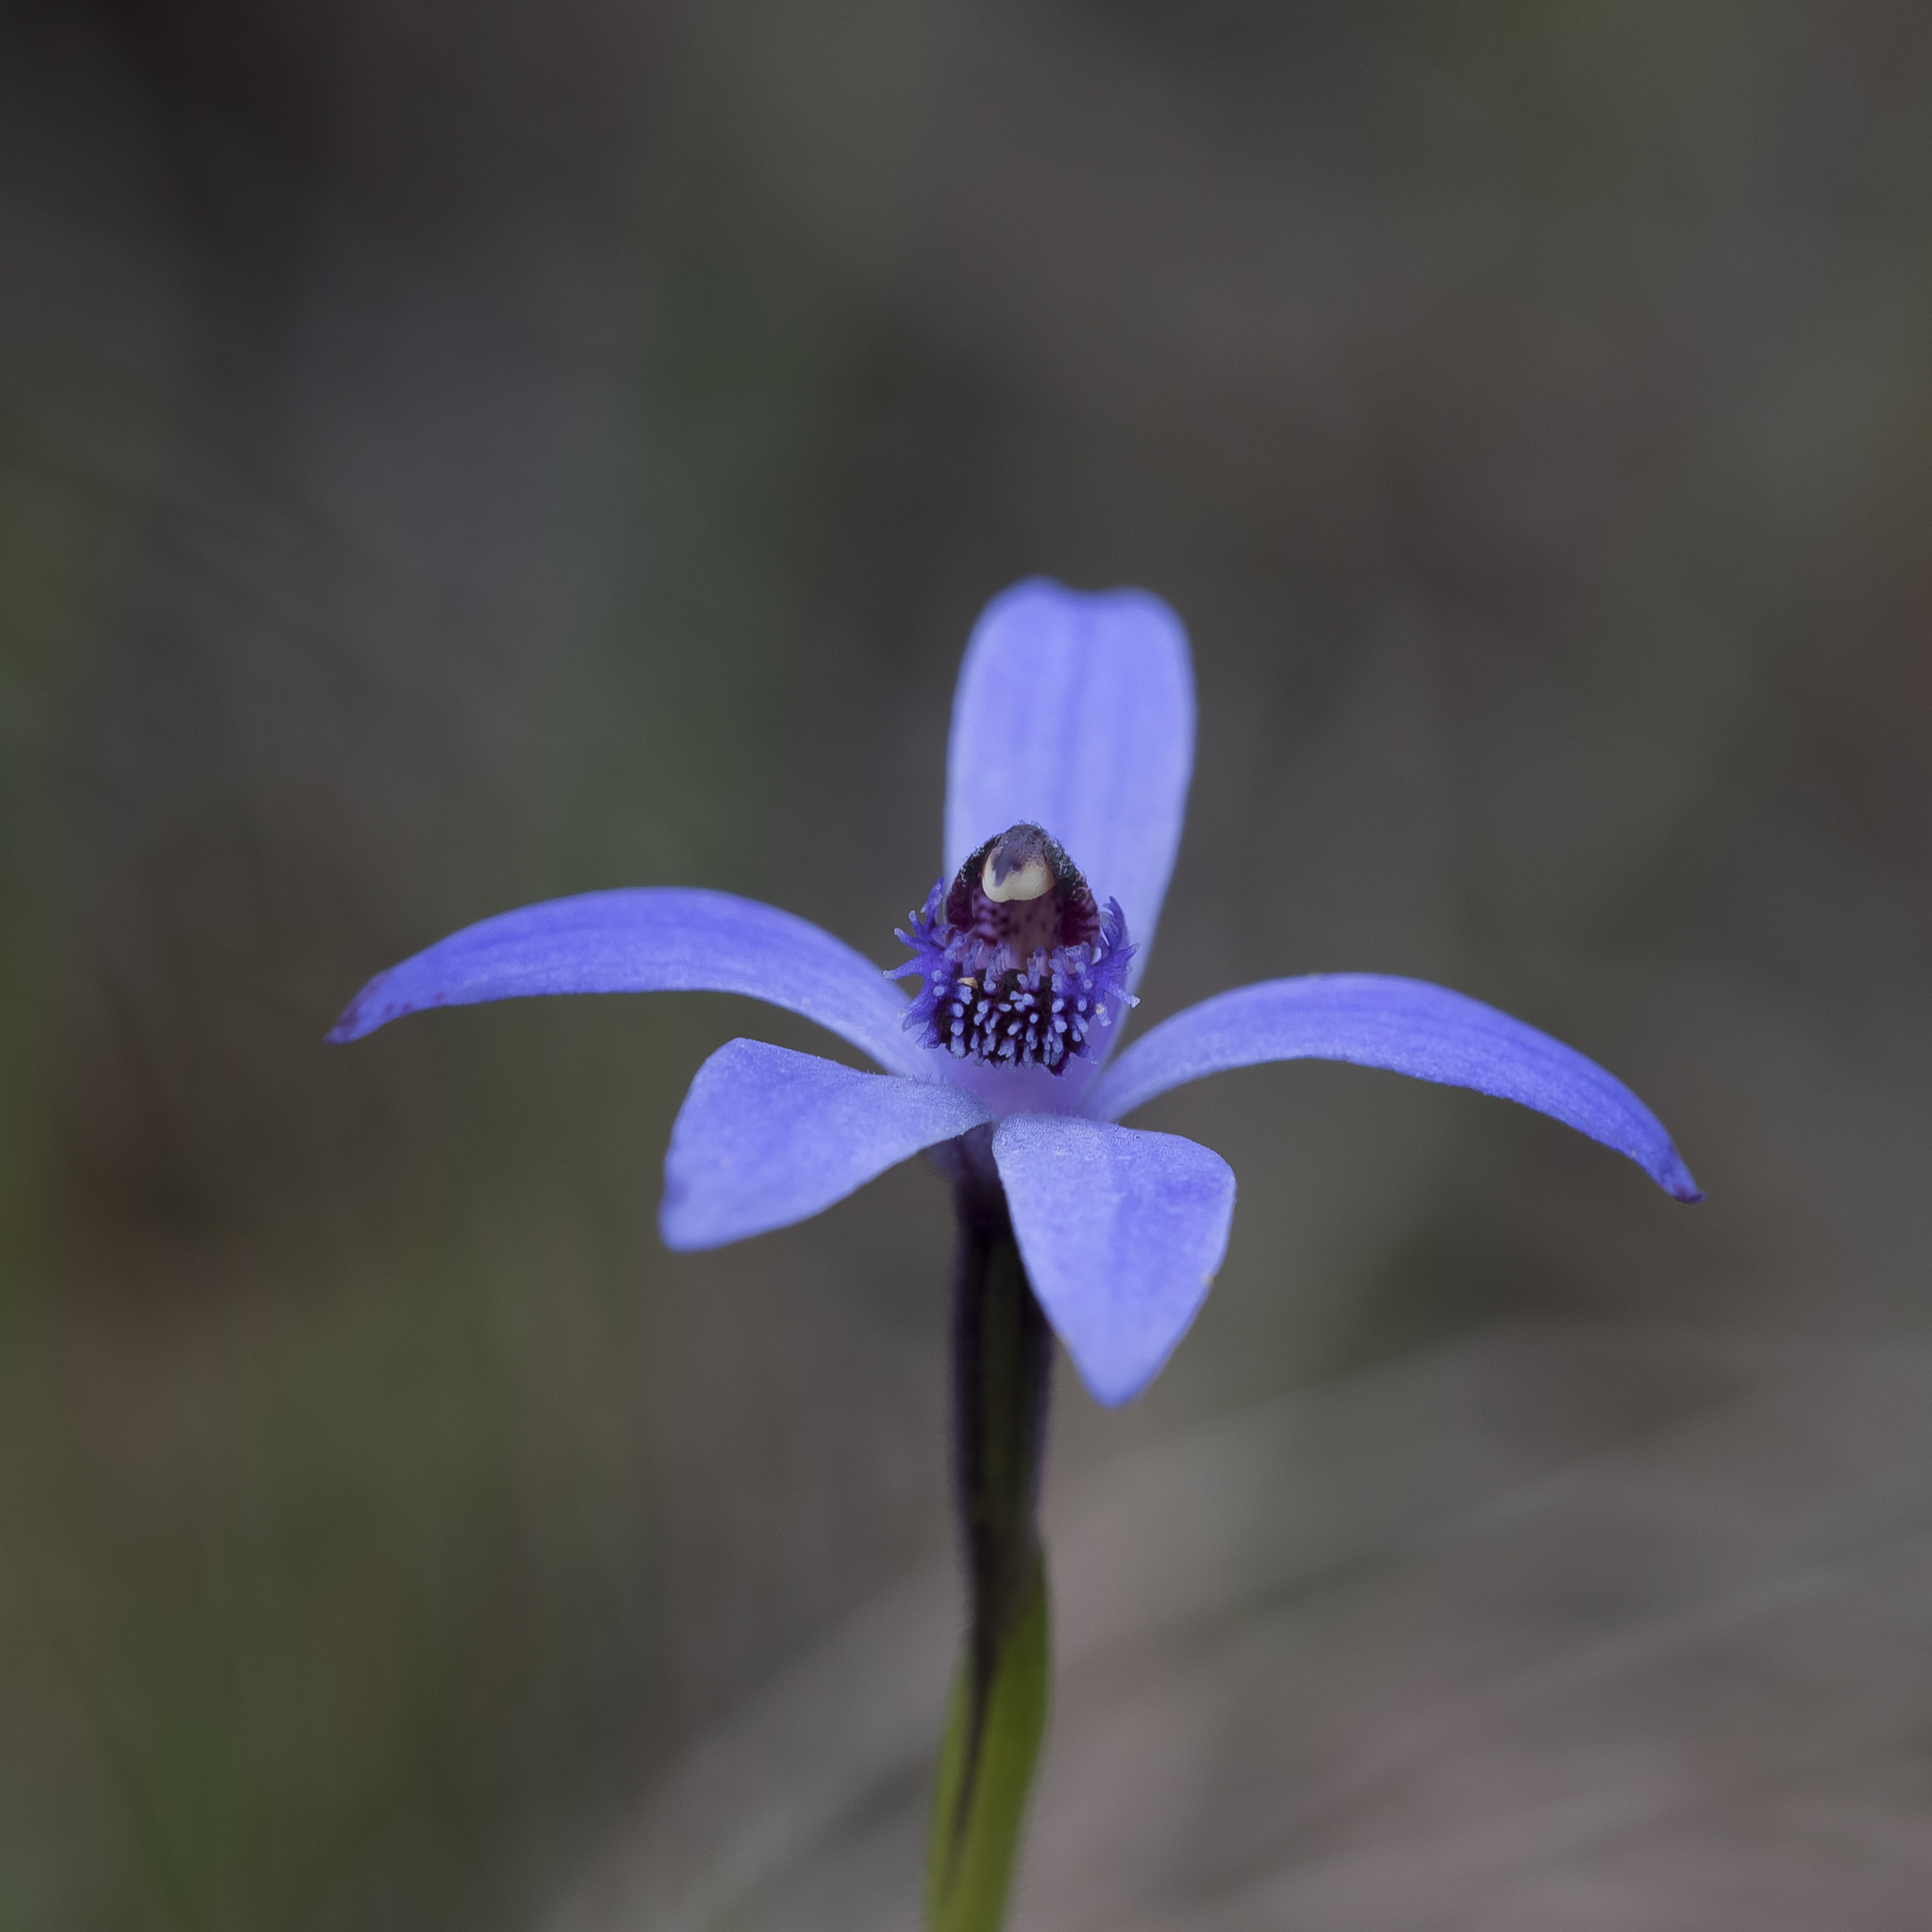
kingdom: Plantae
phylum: Tracheophyta
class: Liliopsida
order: Asparagales
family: Orchidaceae
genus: Pheladenia
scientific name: Pheladenia deformis
